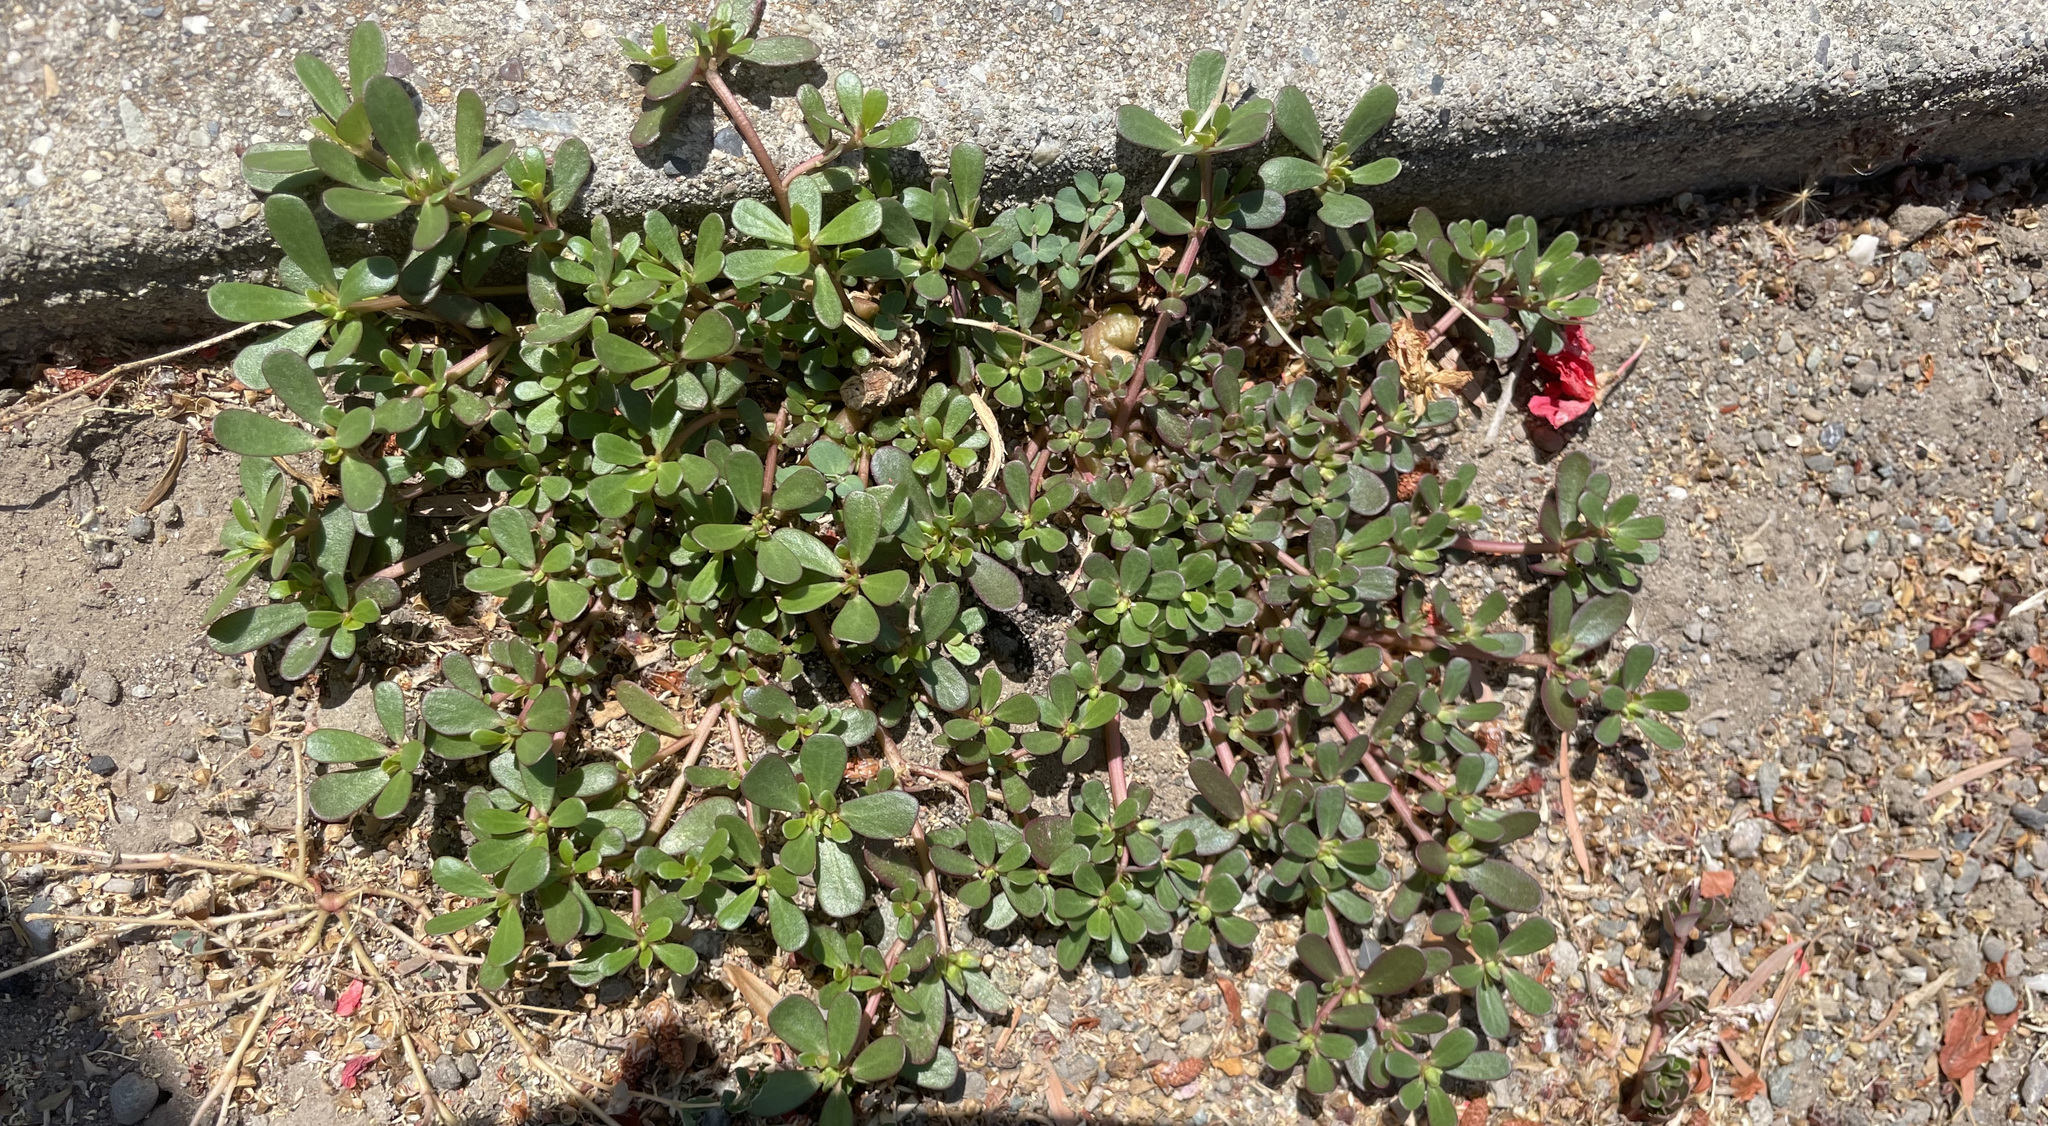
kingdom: Plantae
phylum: Tracheophyta
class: Magnoliopsida
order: Caryophyllales
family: Portulacaceae
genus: Portulaca
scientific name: Portulaca oleracea
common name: Common purslane
